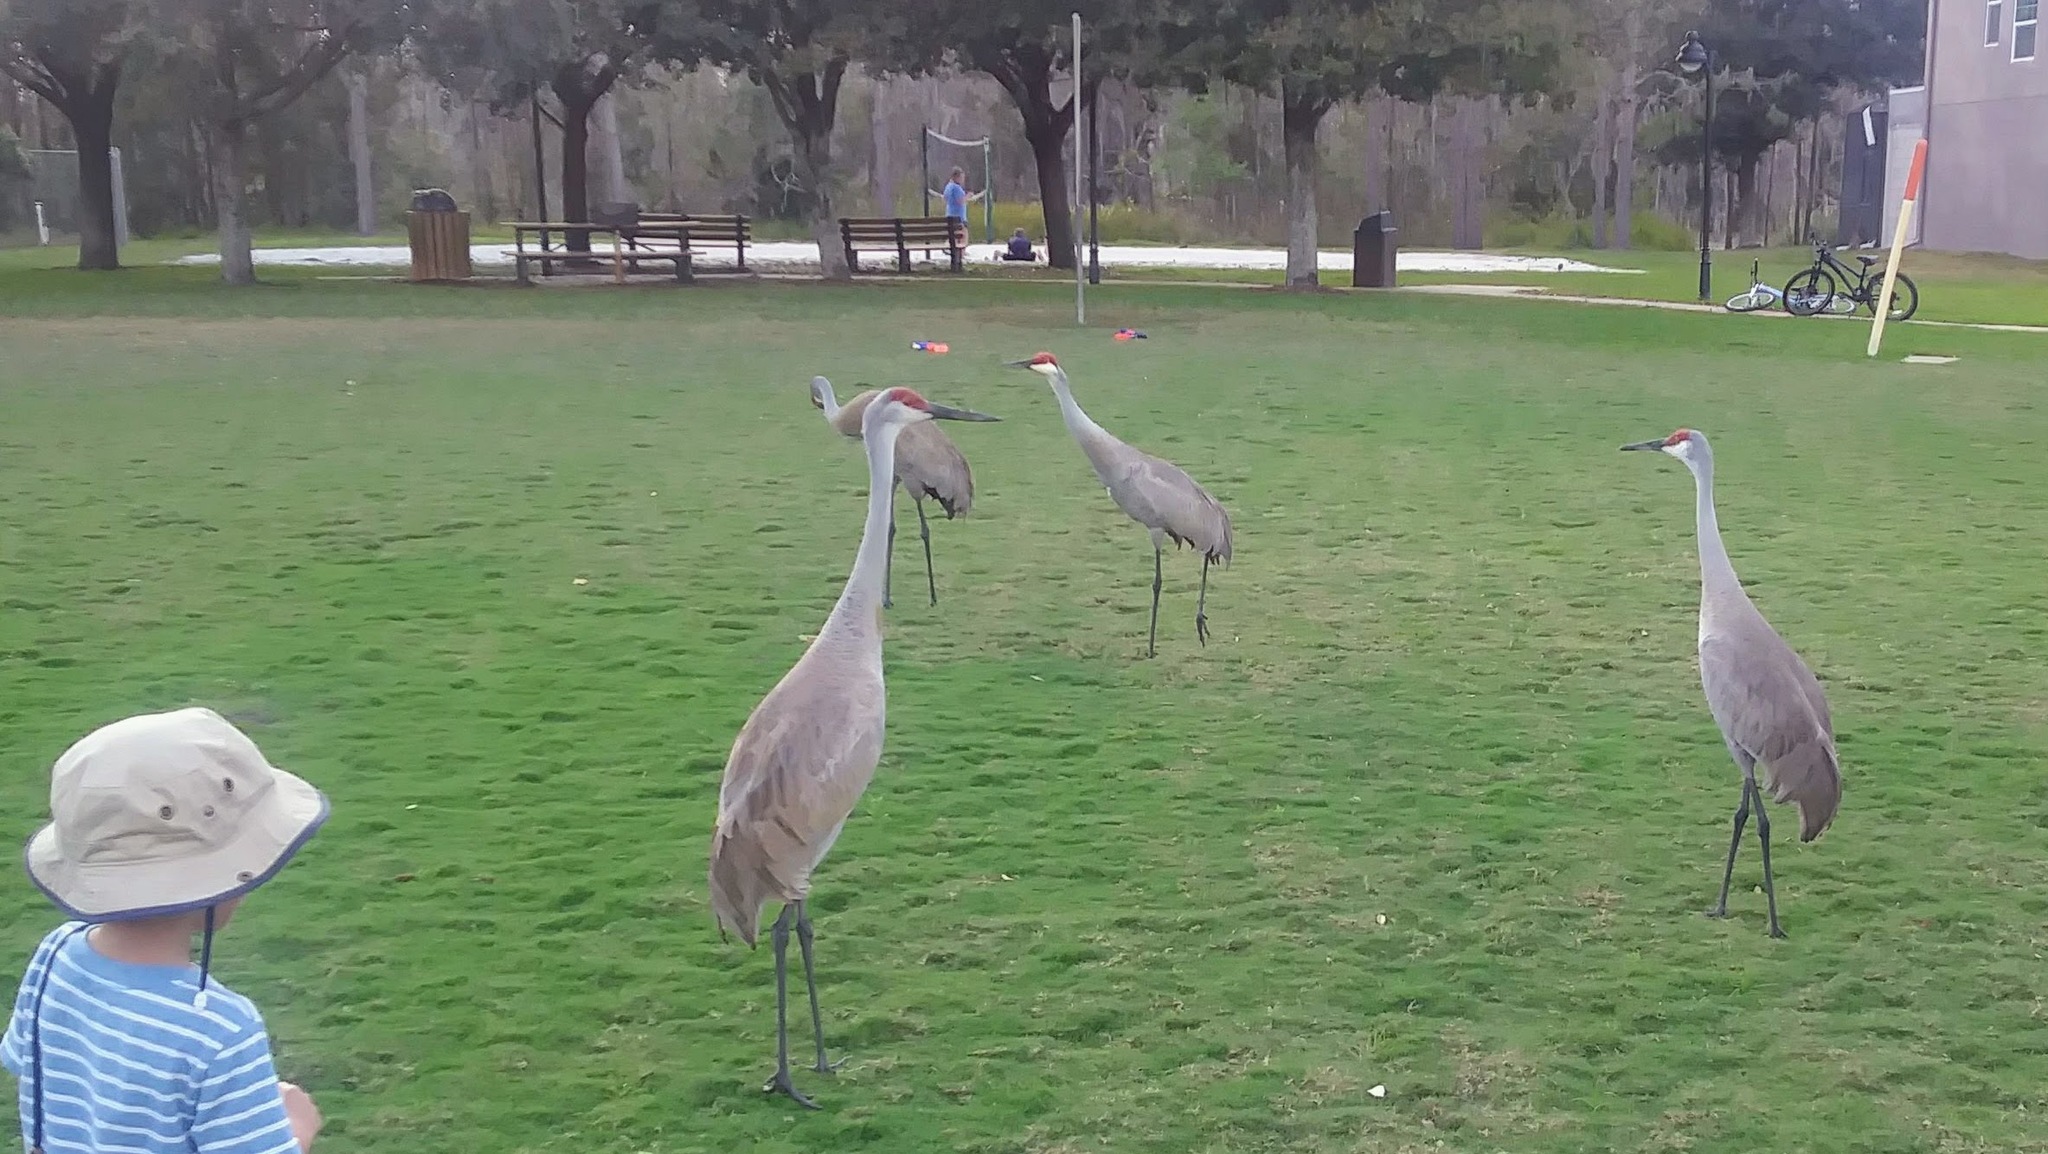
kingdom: Animalia
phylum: Chordata
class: Aves
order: Gruiformes
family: Gruidae
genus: Grus
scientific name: Grus canadensis
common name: Sandhill crane
